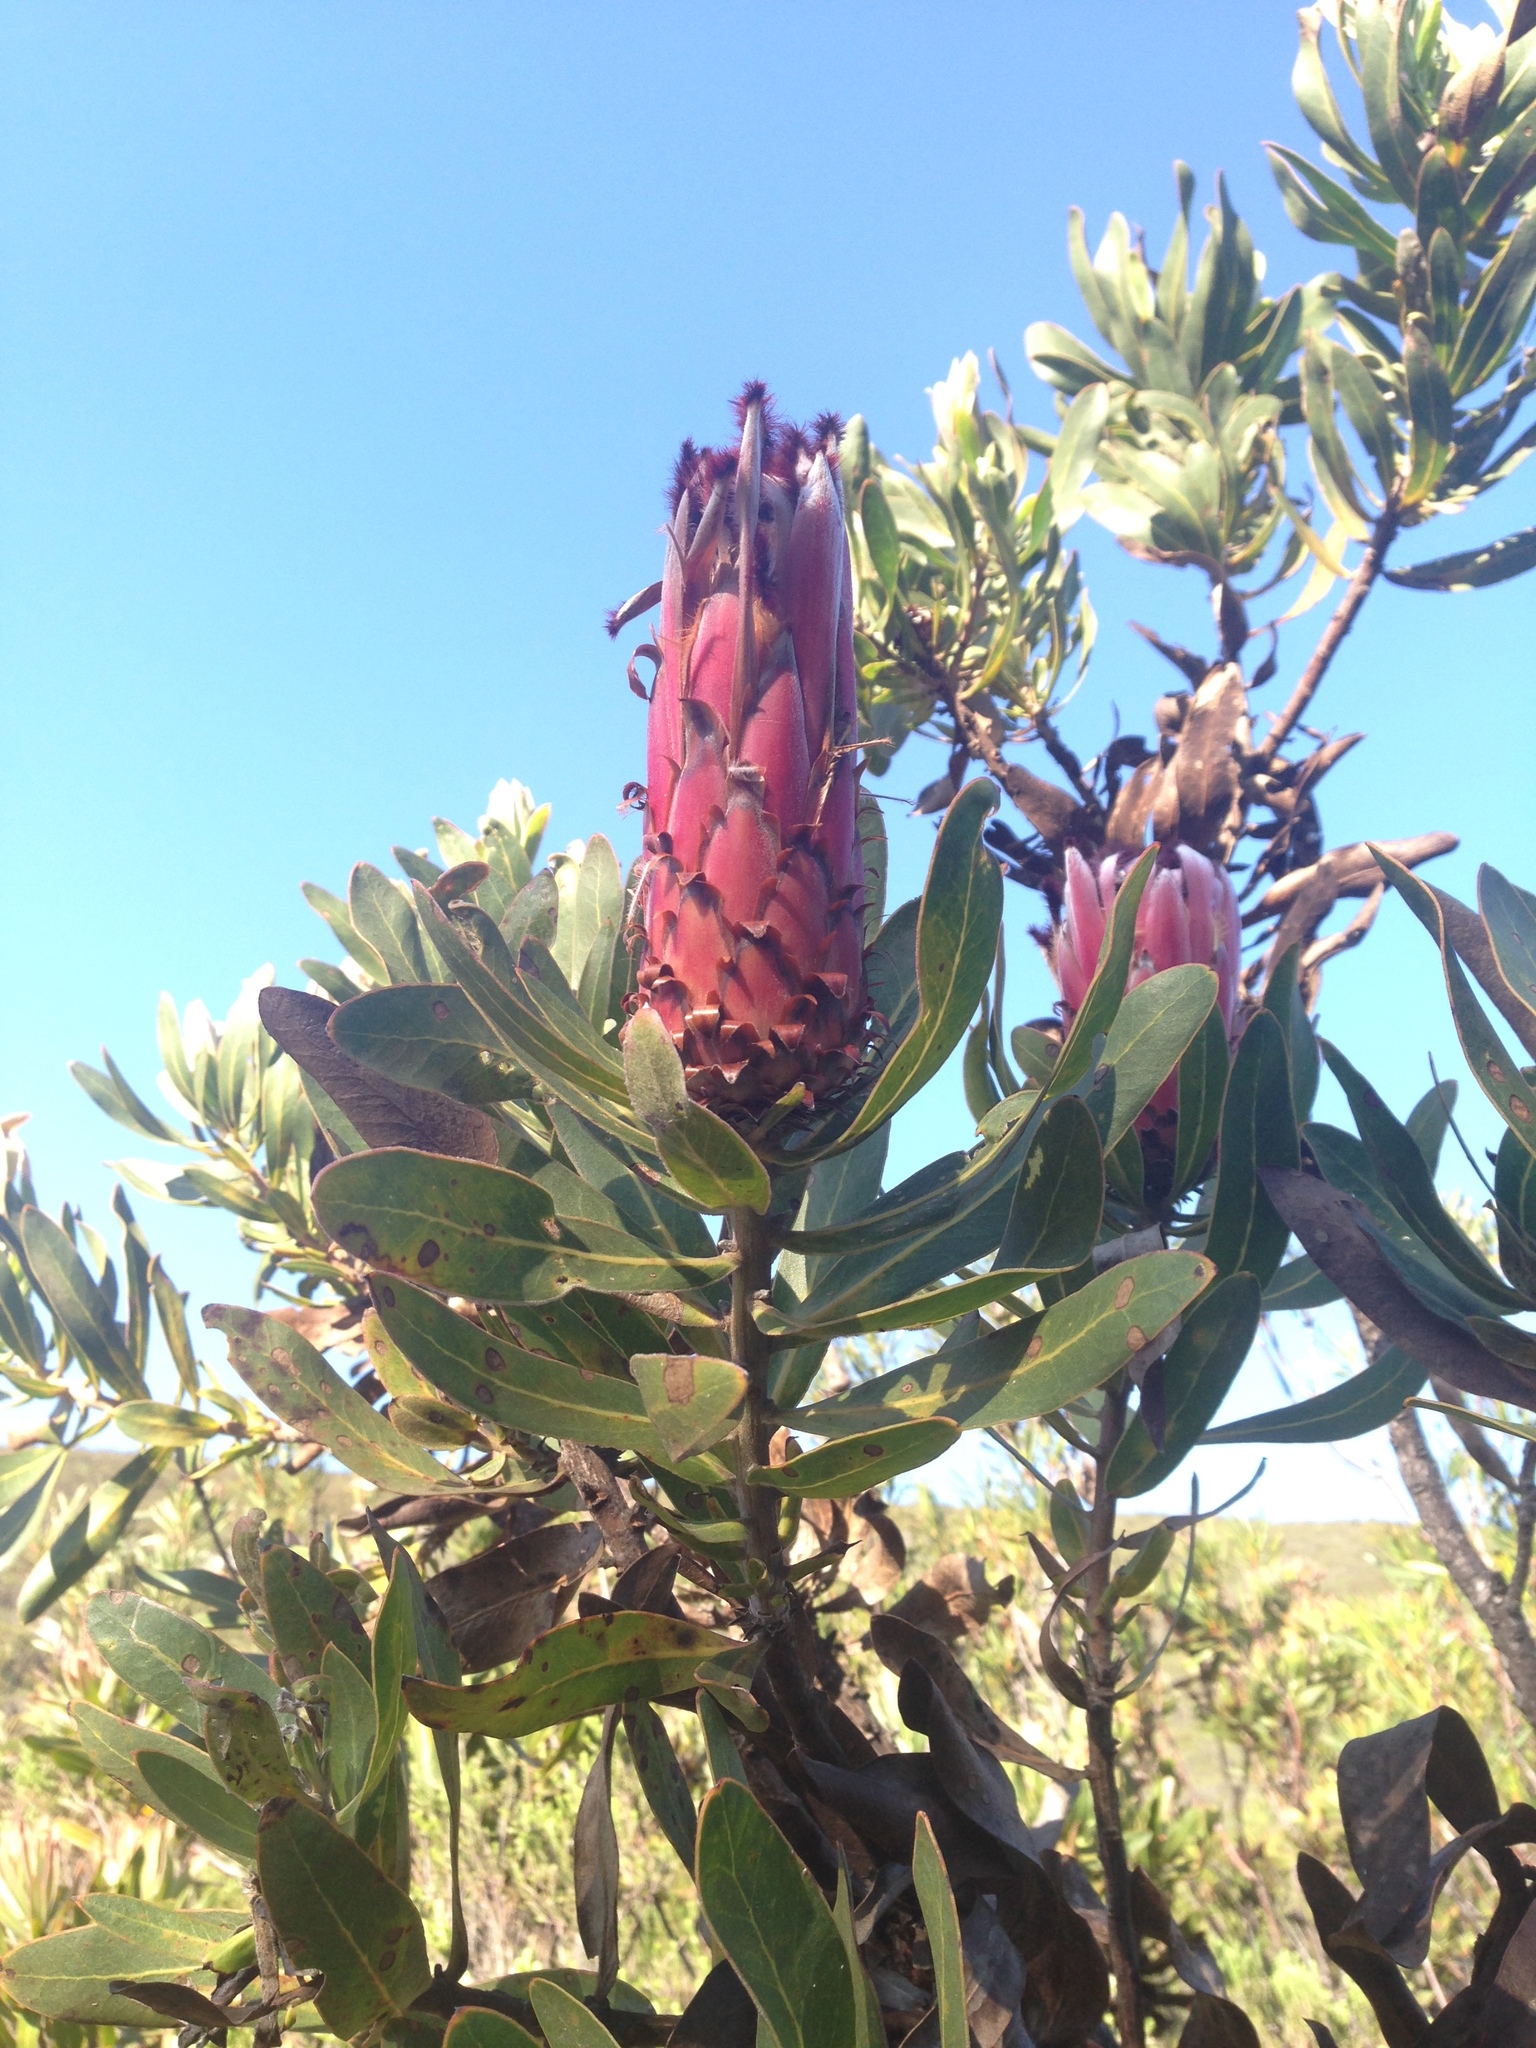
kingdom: Plantae
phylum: Tracheophyta
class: Magnoliopsida
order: Proteales
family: Proteaceae
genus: Protea
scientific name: Protea neriifolia
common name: Blue sugarbush
